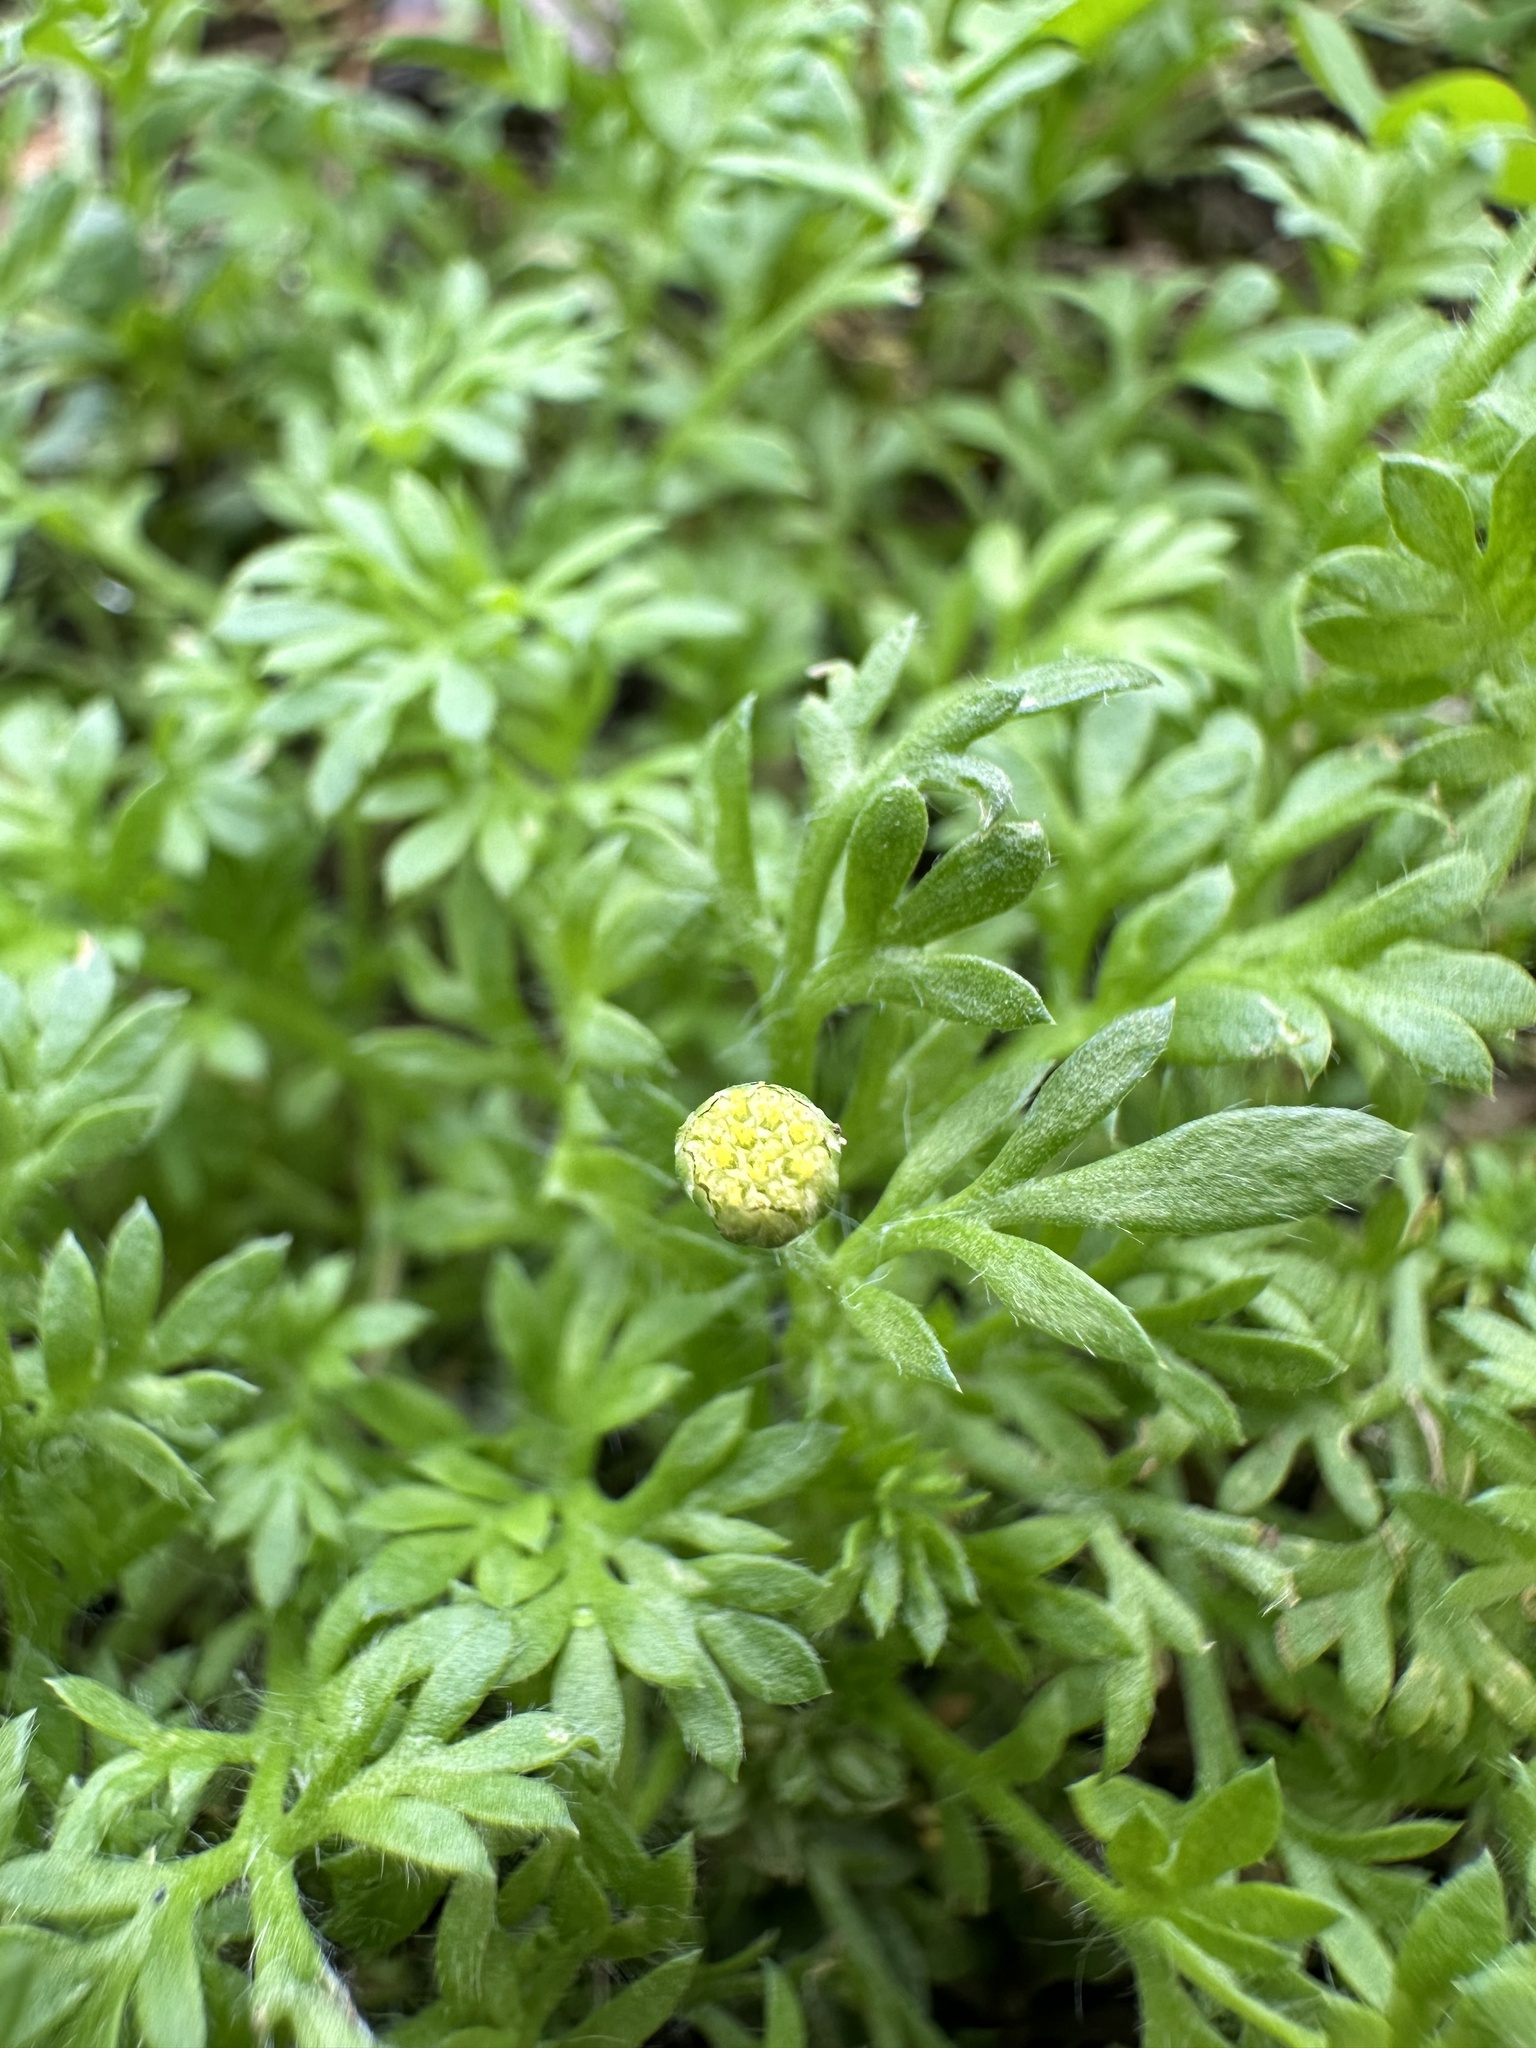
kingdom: Plantae
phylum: Tracheophyta
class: Magnoliopsida
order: Asterales
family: Asteraceae
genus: Cotula
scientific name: Cotula australis
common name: Australian waterbuttons
